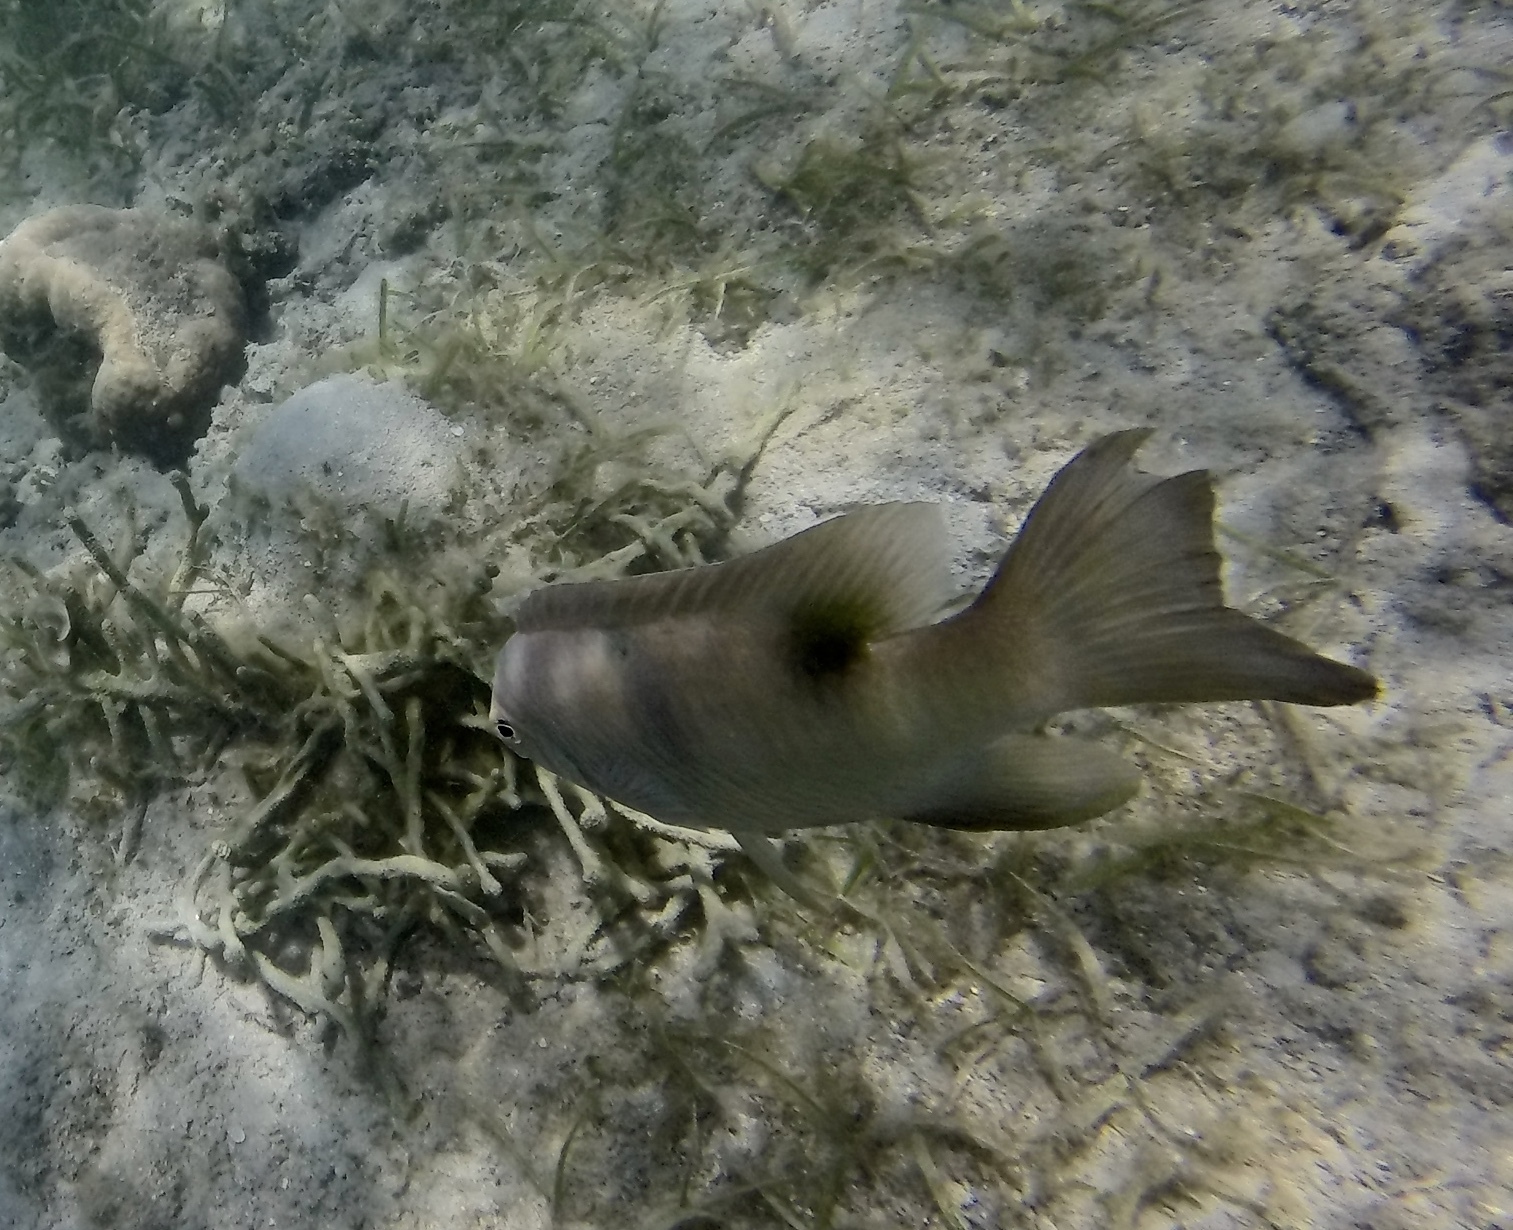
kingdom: Animalia
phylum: Chordata
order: Perciformes
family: Pomacentridae
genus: Dischistodus
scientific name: Dischistodus perspicillatus
